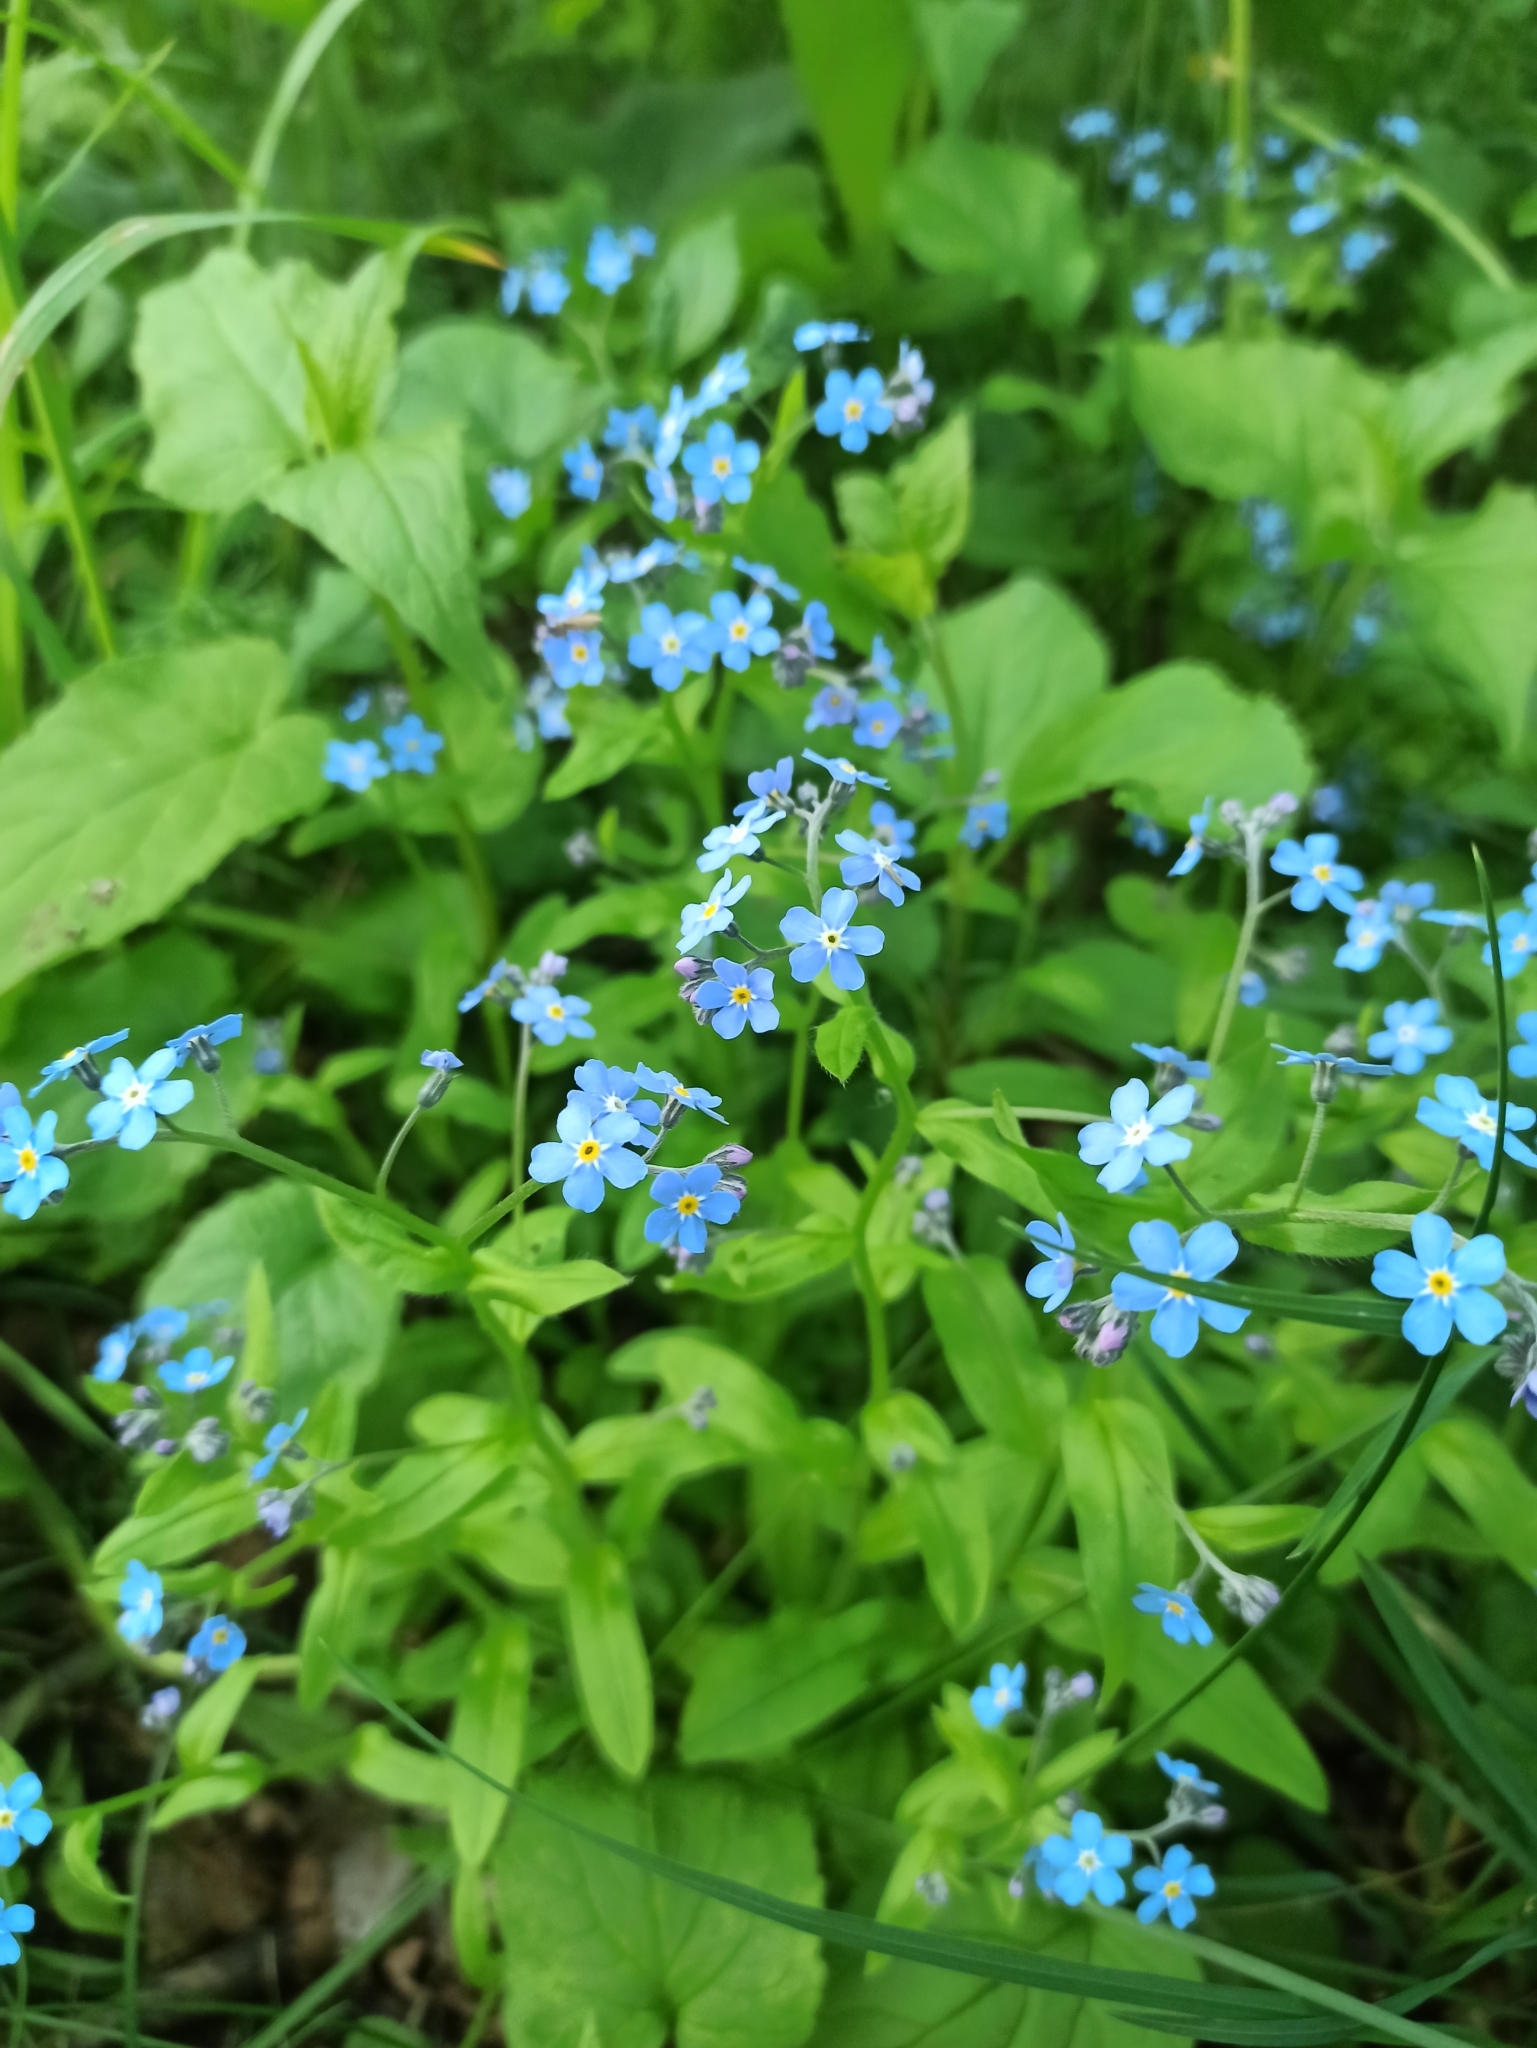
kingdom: Plantae
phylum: Tracheophyta
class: Magnoliopsida
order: Boraginales
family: Boraginaceae
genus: Myosotis
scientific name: Myosotis sylvatica
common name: Wood forget-me-not
